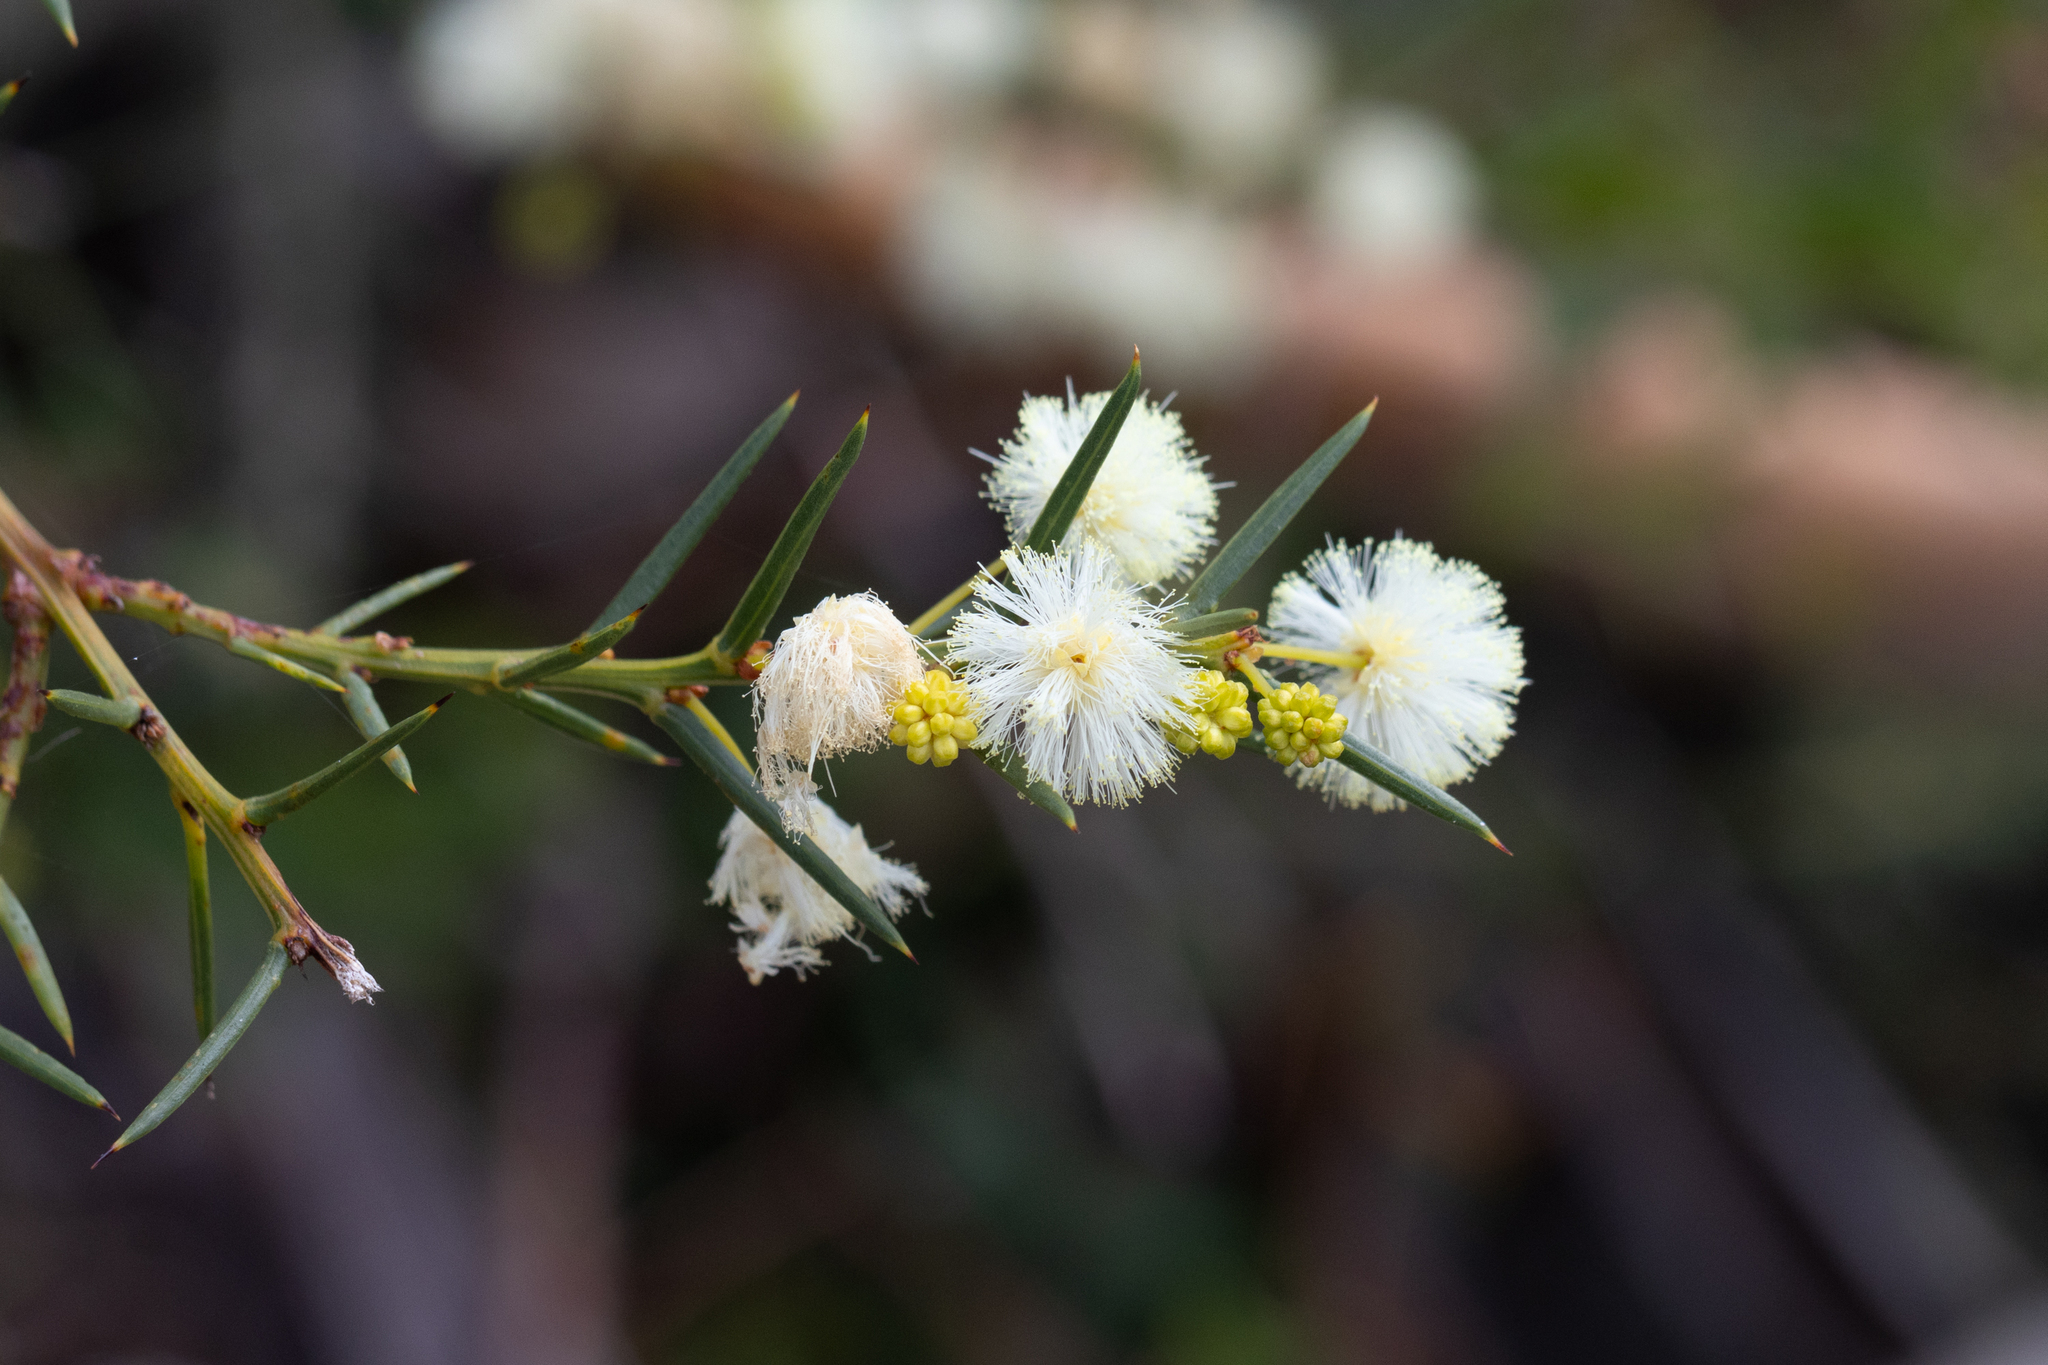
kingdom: Plantae
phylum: Tracheophyta
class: Magnoliopsida
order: Fabales
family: Fabaceae
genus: Acacia
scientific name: Acacia genistifolia
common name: Early wattle
